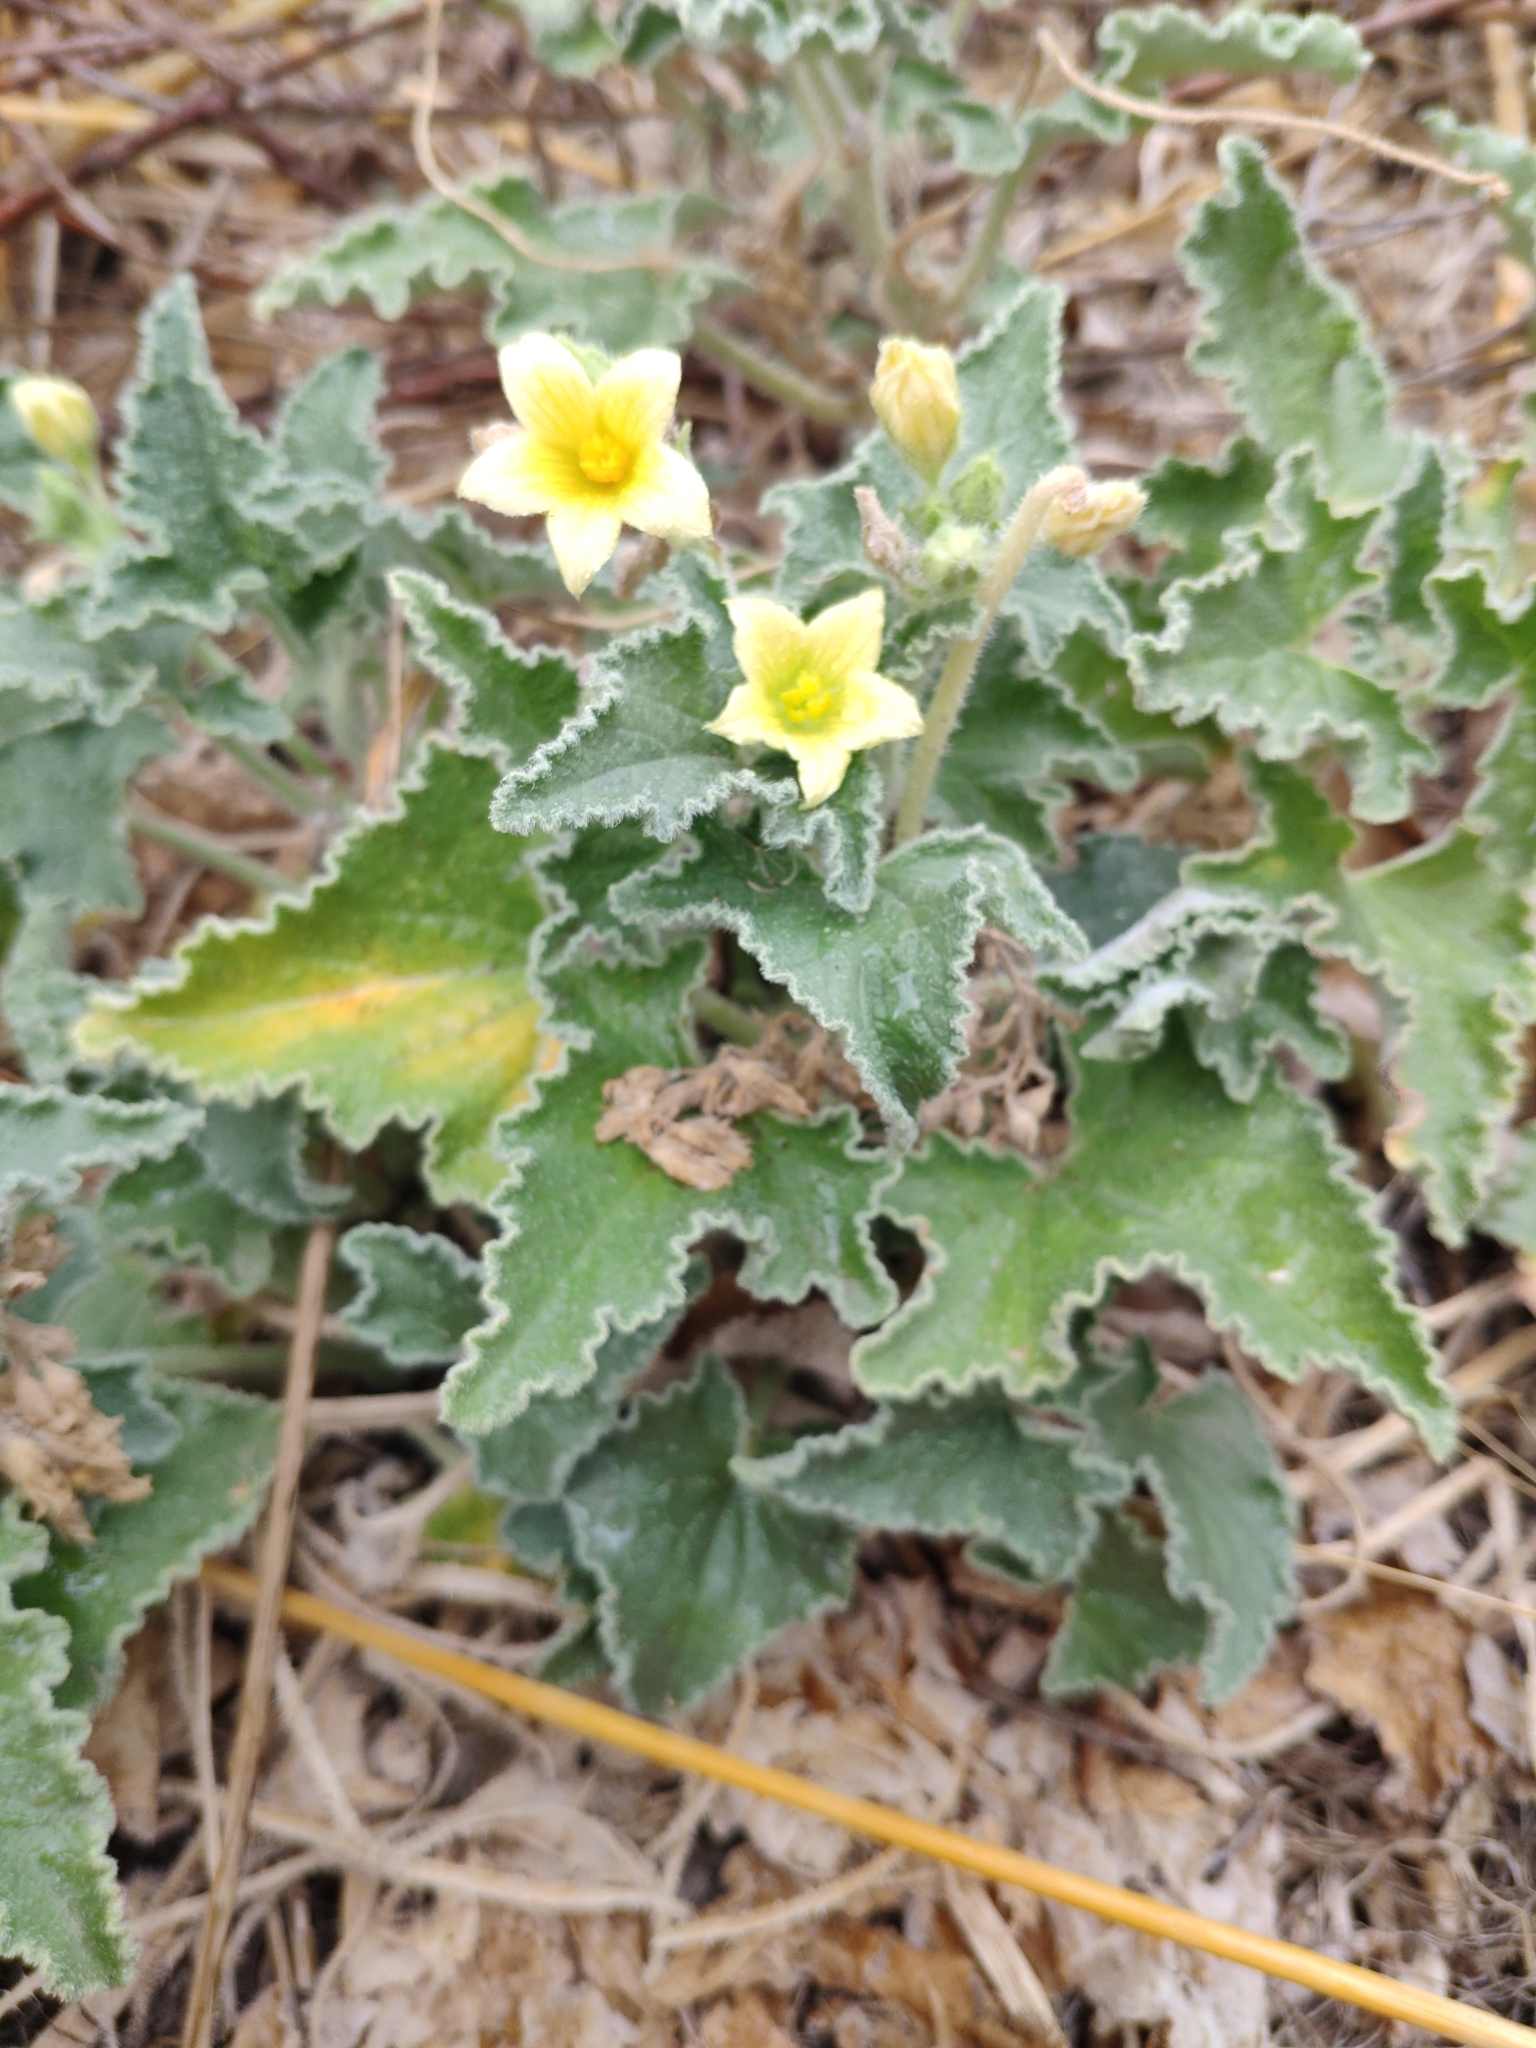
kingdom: Plantae
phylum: Tracheophyta
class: Magnoliopsida
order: Cucurbitales
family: Cucurbitaceae
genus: Ecballium
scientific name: Ecballium elaterium
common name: Squirting cucumber
